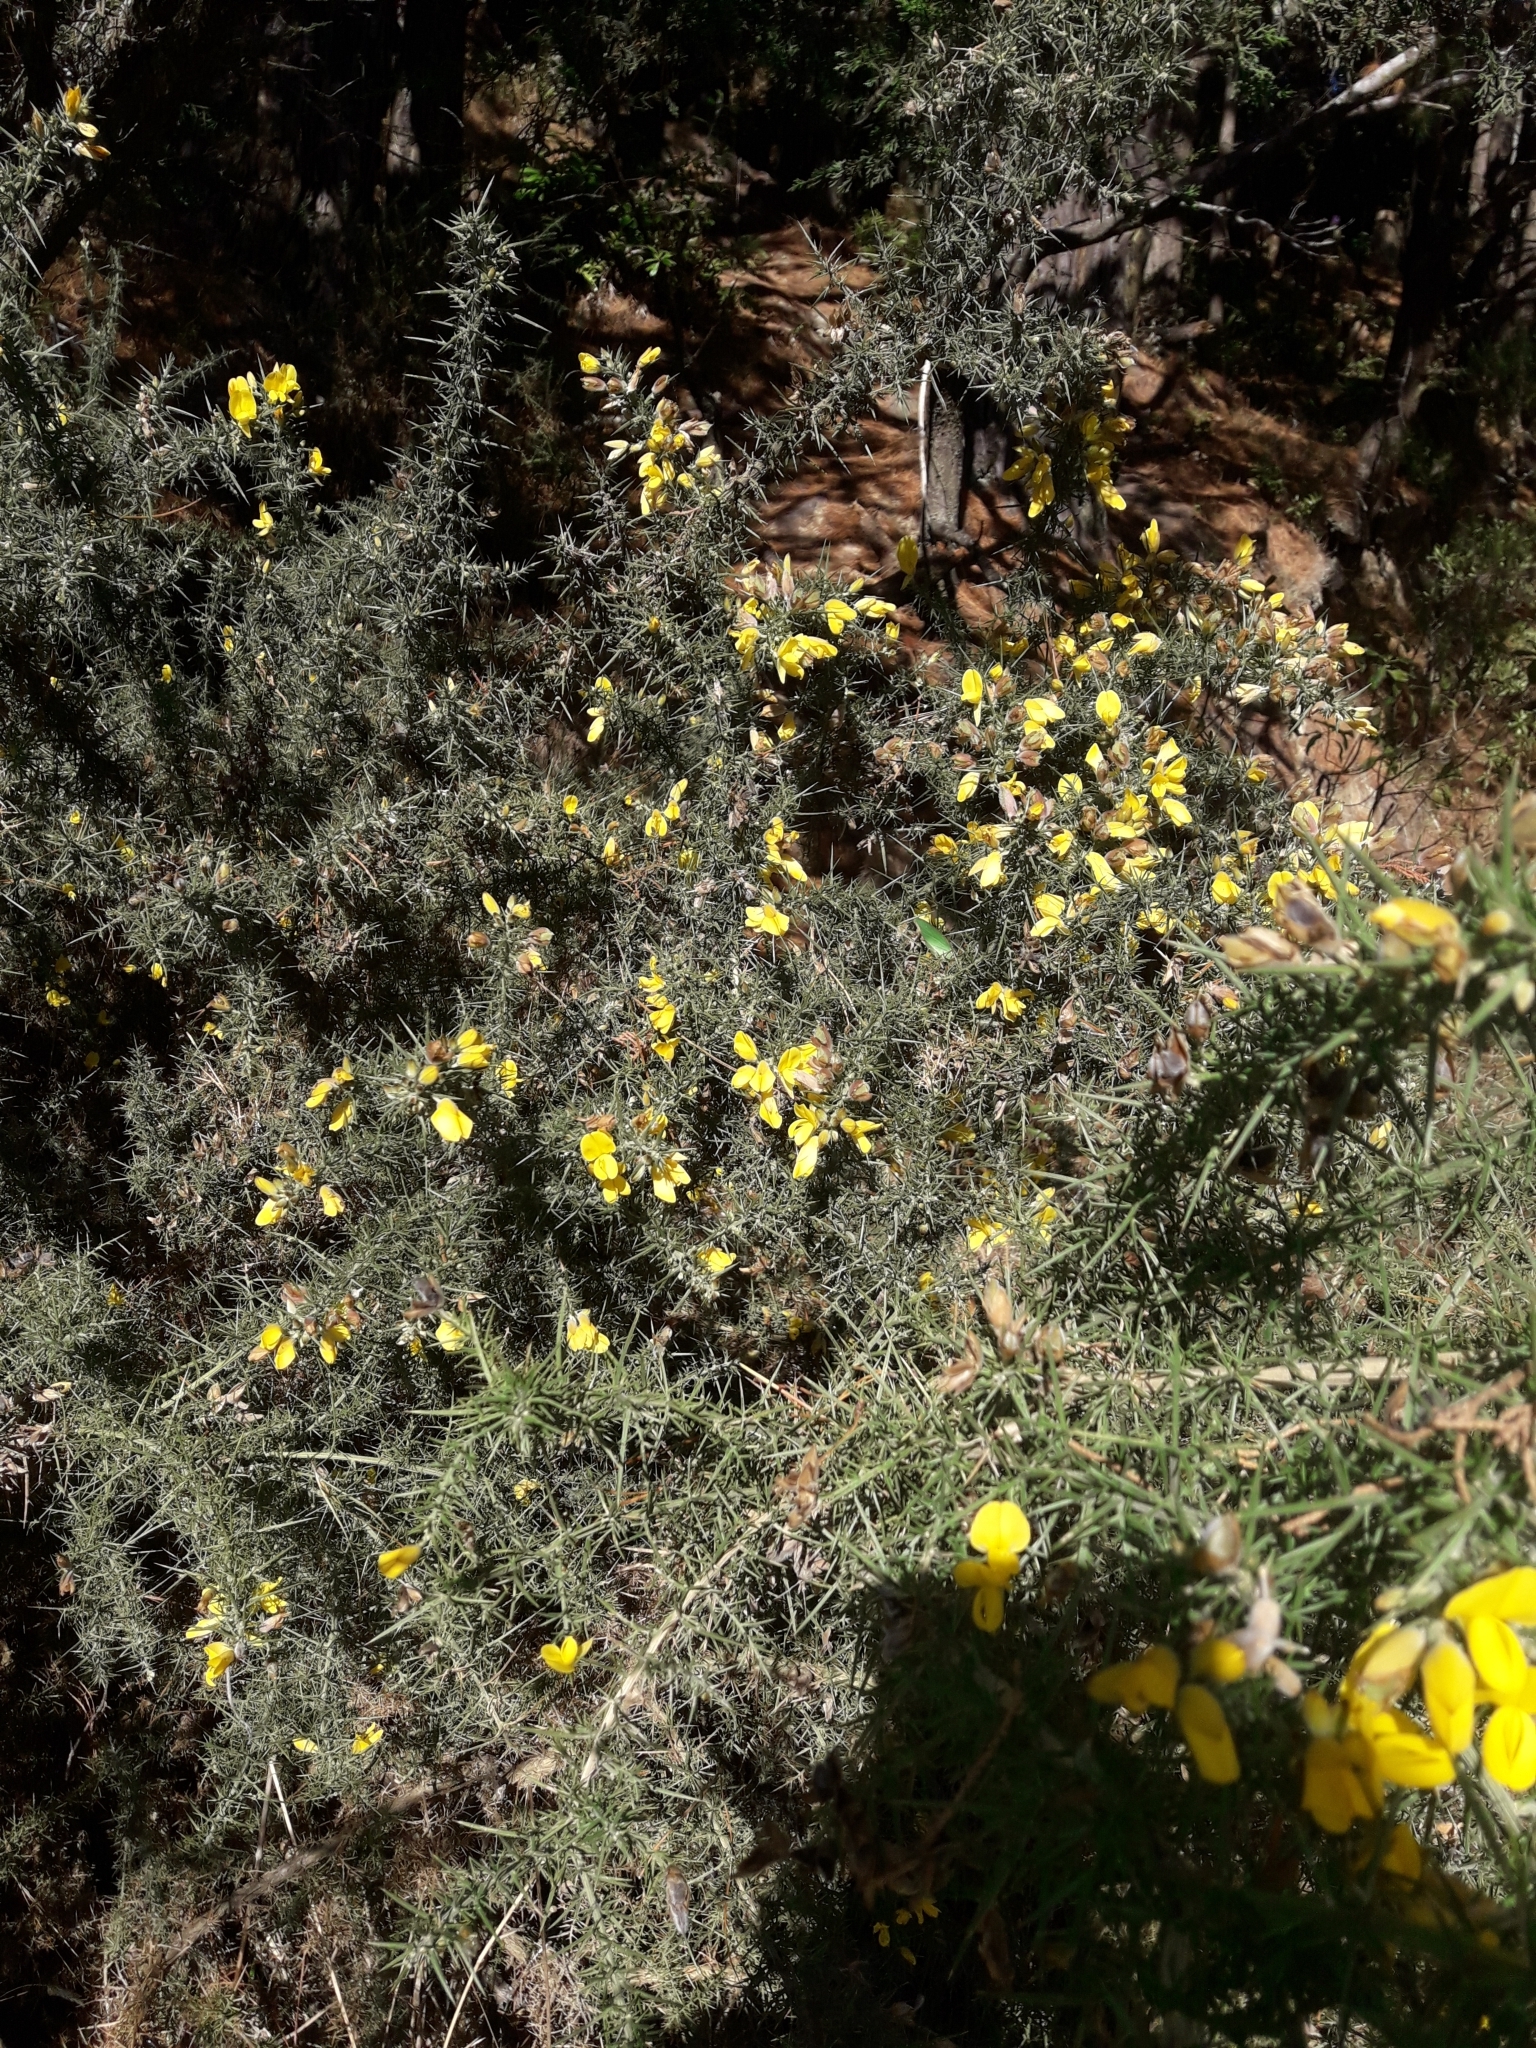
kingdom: Plantae
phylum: Tracheophyta
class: Magnoliopsida
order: Fabales
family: Fabaceae
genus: Ulex
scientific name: Ulex europaeus
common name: Common gorse
